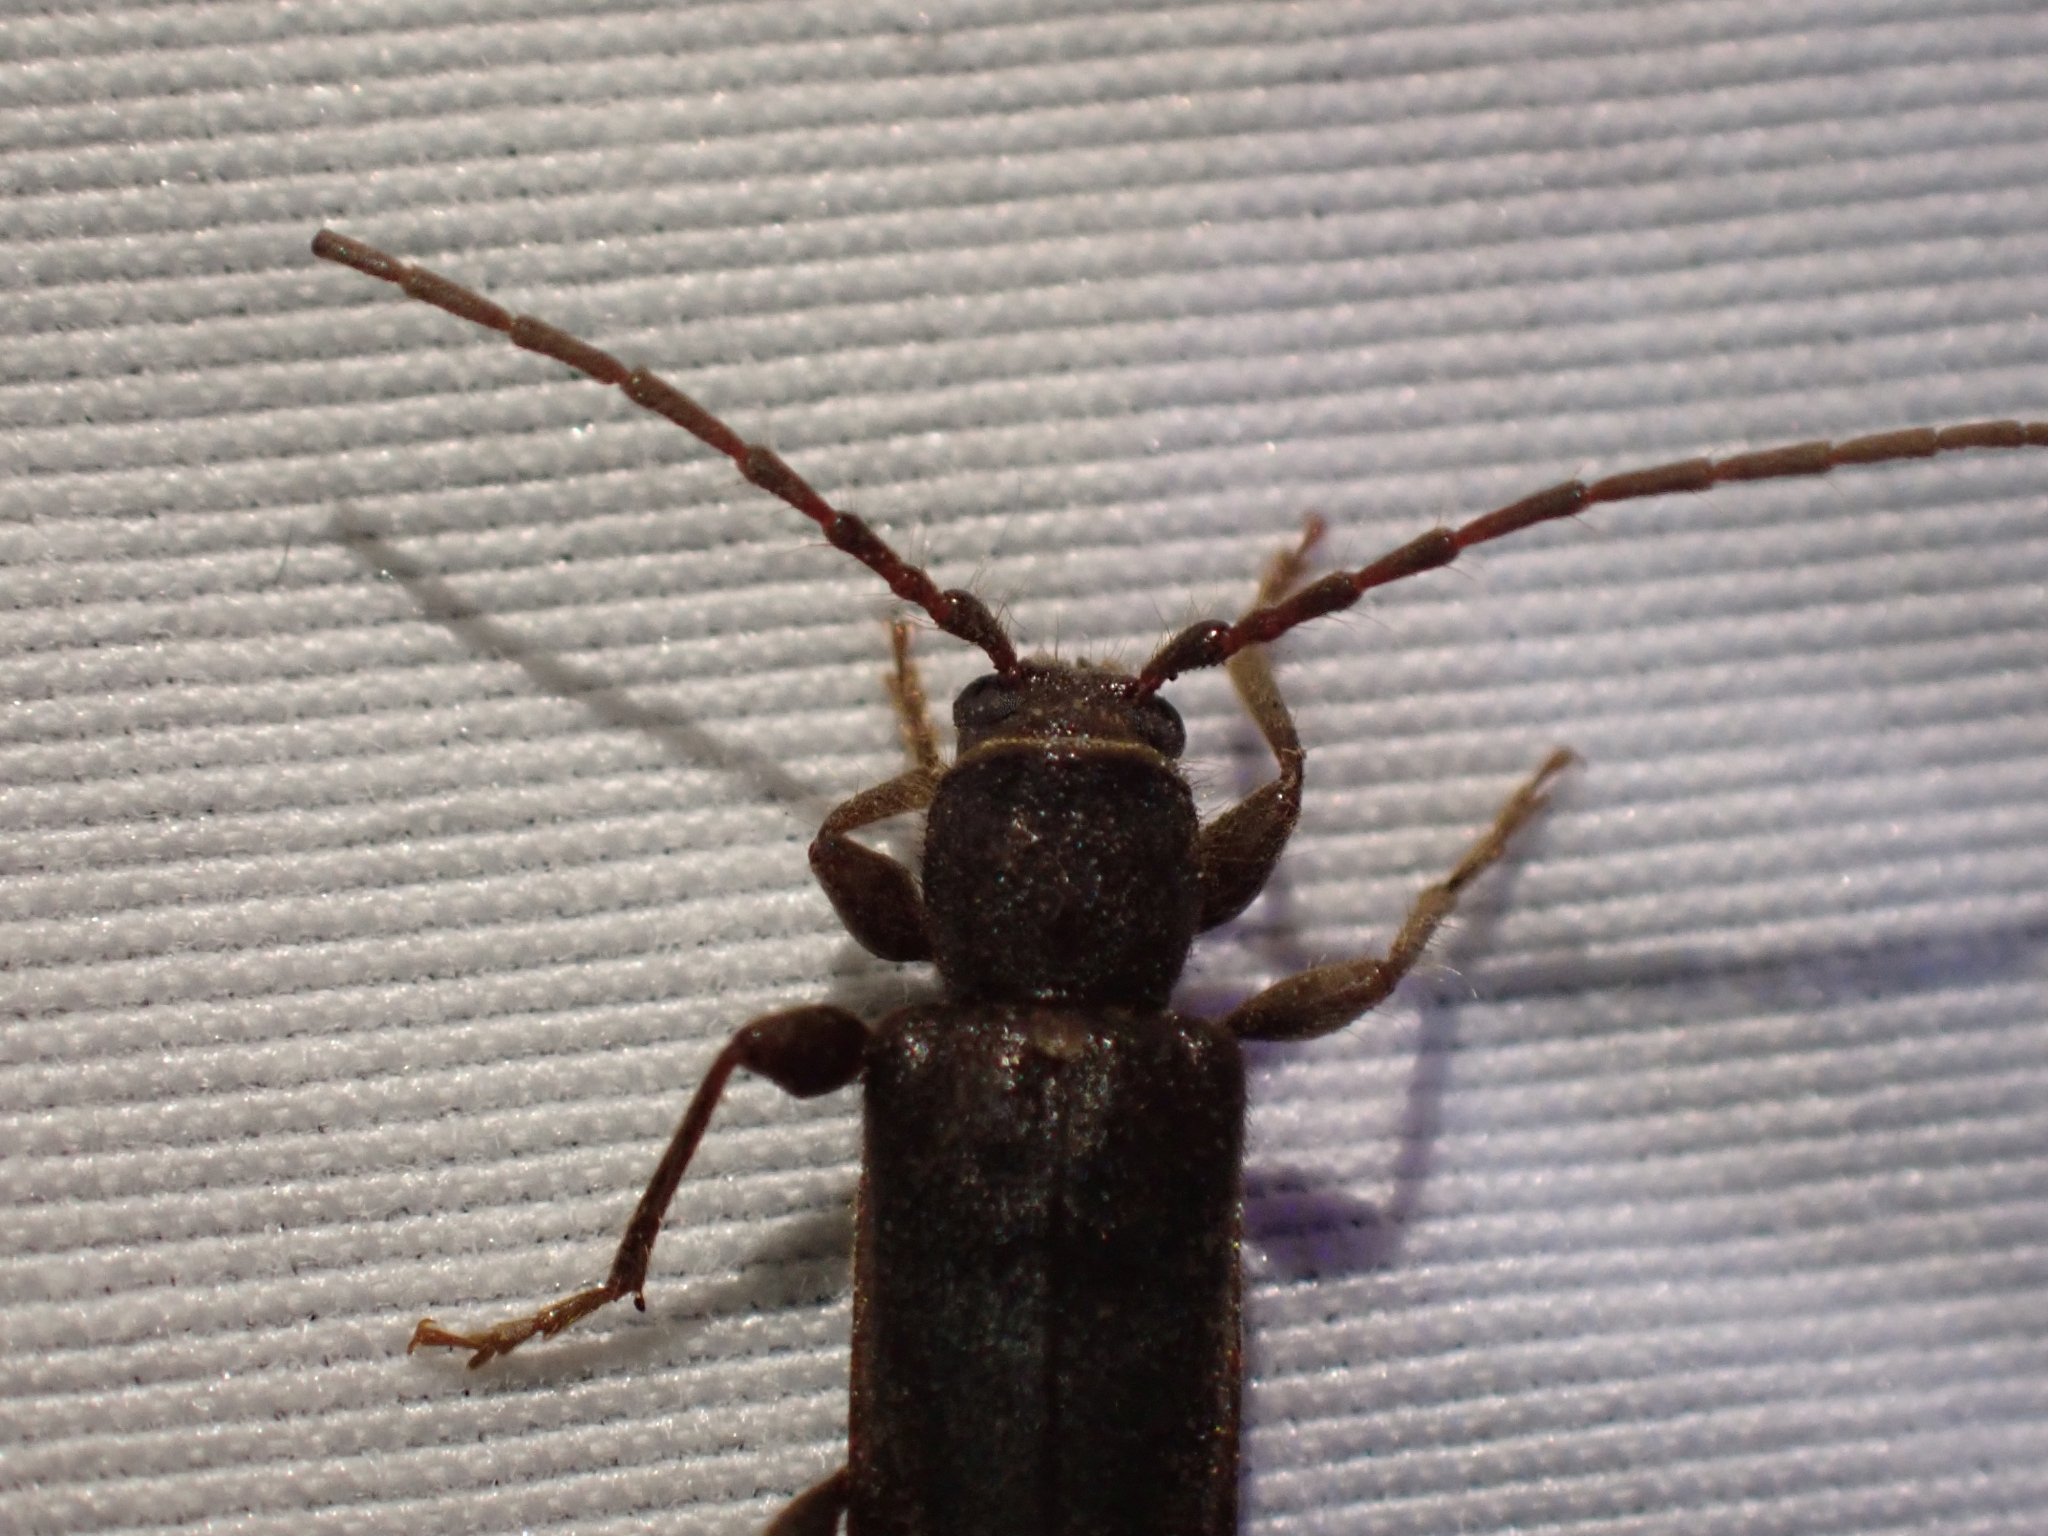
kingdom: Animalia
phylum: Arthropoda
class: Insecta
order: Coleoptera
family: Cerambycidae
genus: Phymatodes
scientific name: Phymatodes grandis
